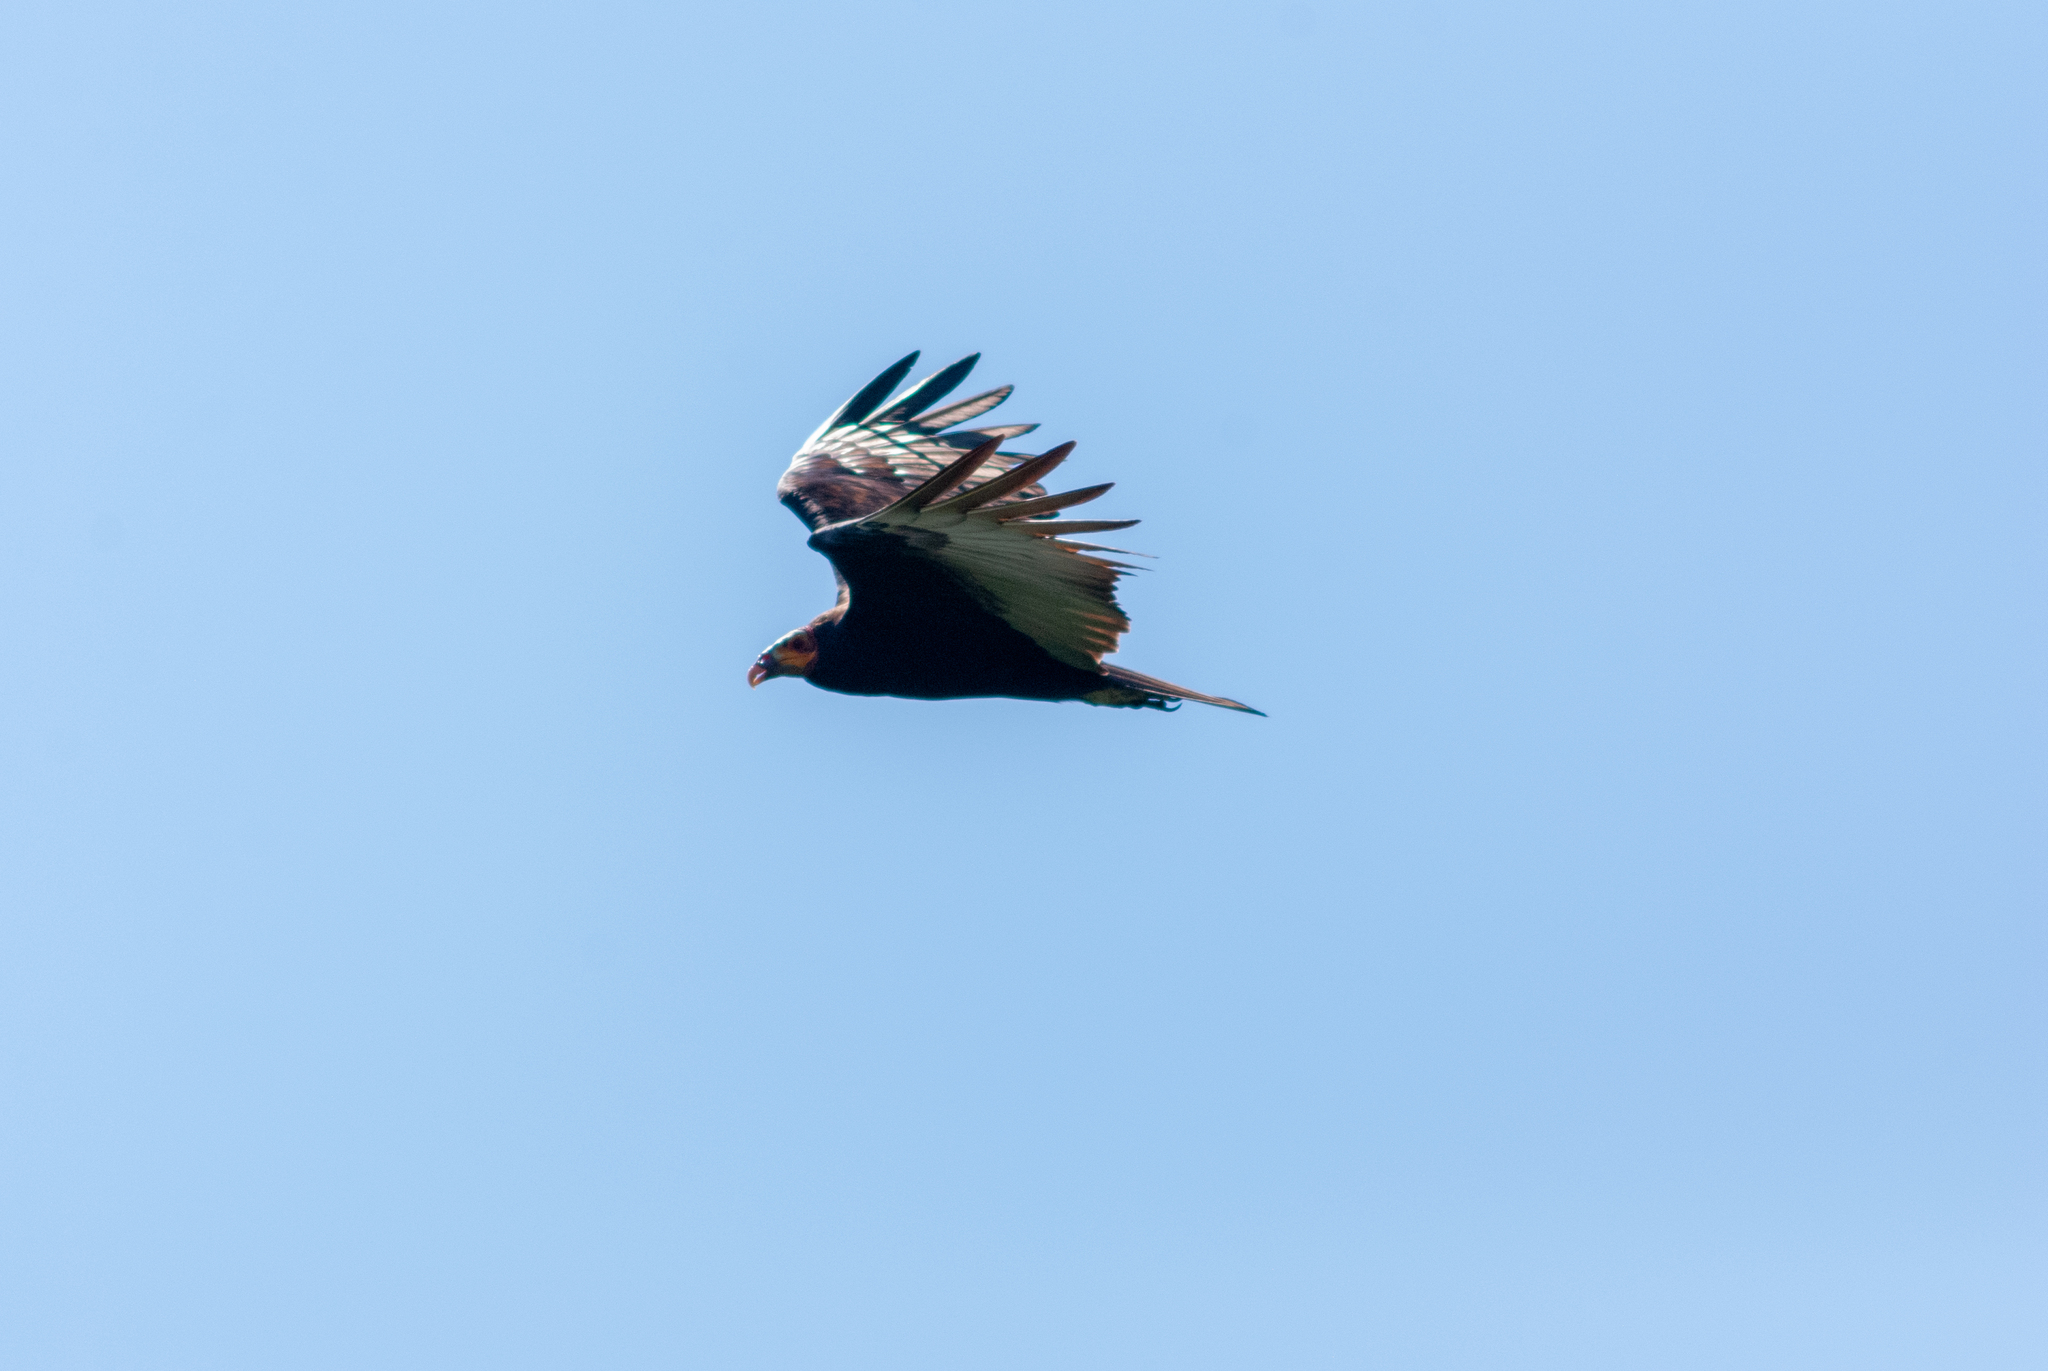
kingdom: Animalia
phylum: Chordata
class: Aves
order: Accipitriformes
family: Cathartidae
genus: Cathartes
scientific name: Cathartes burrovianus
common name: Lesser yellow-headed vulture
